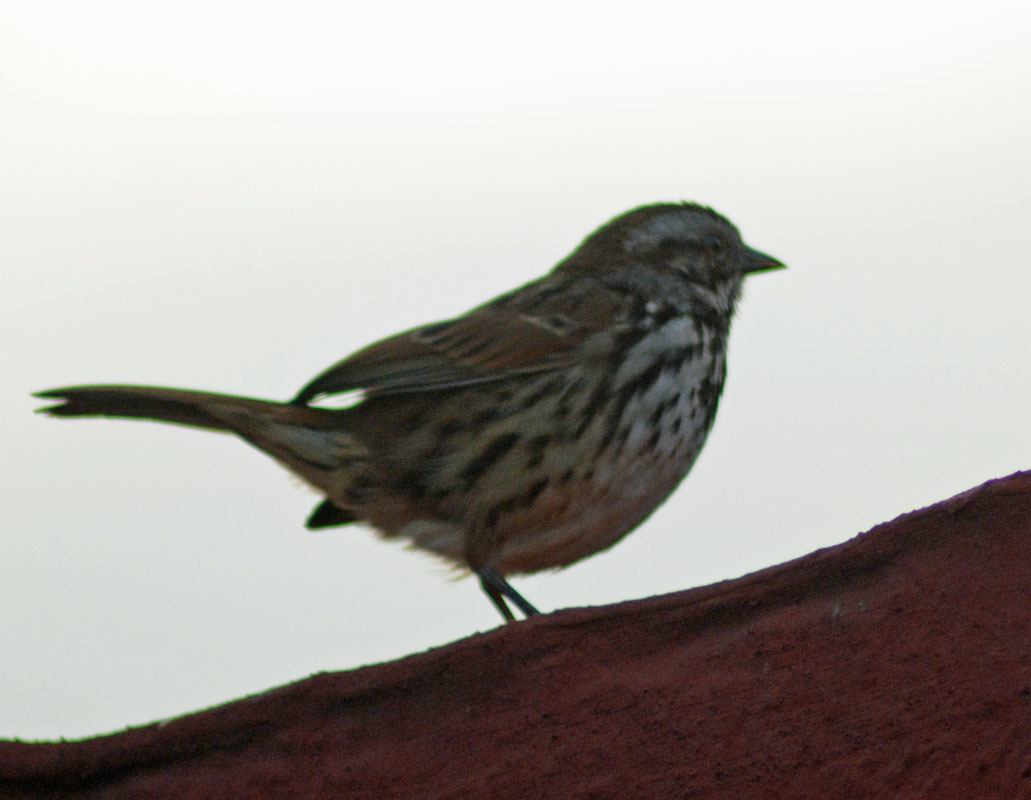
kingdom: Animalia
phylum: Chordata
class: Aves
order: Passeriformes
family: Passerellidae
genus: Melospiza
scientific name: Melospiza melodia
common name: Song sparrow
